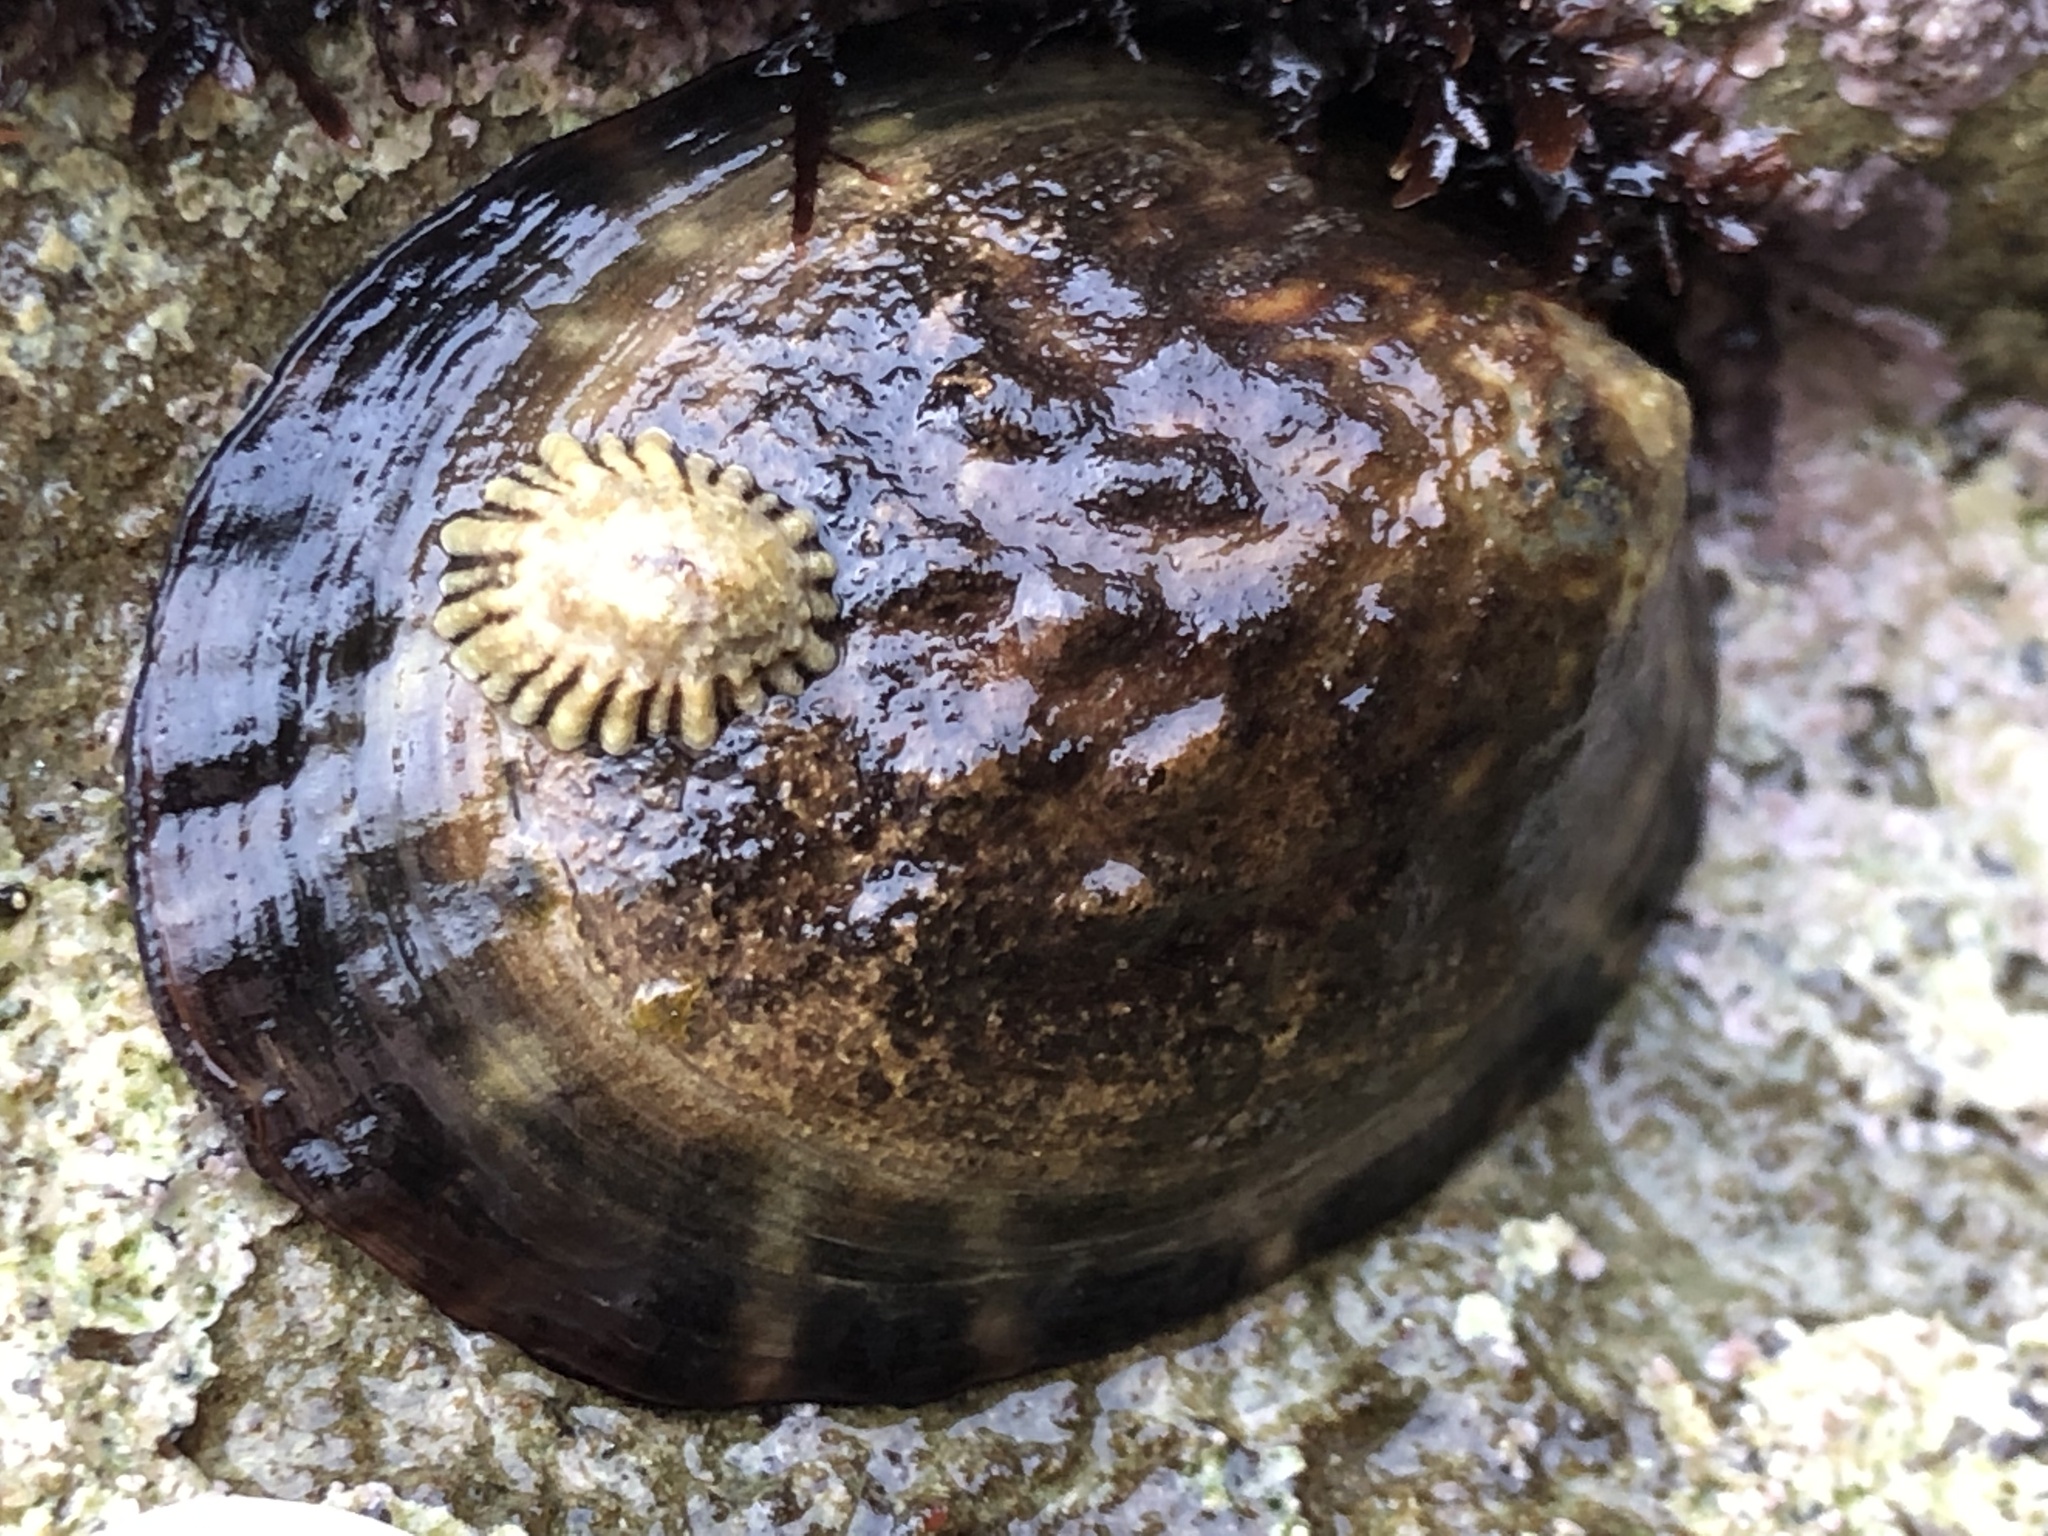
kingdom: Animalia
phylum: Mollusca
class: Gastropoda
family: Lottiidae
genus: Lottia
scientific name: Lottia gigantea
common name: Owl limpet
